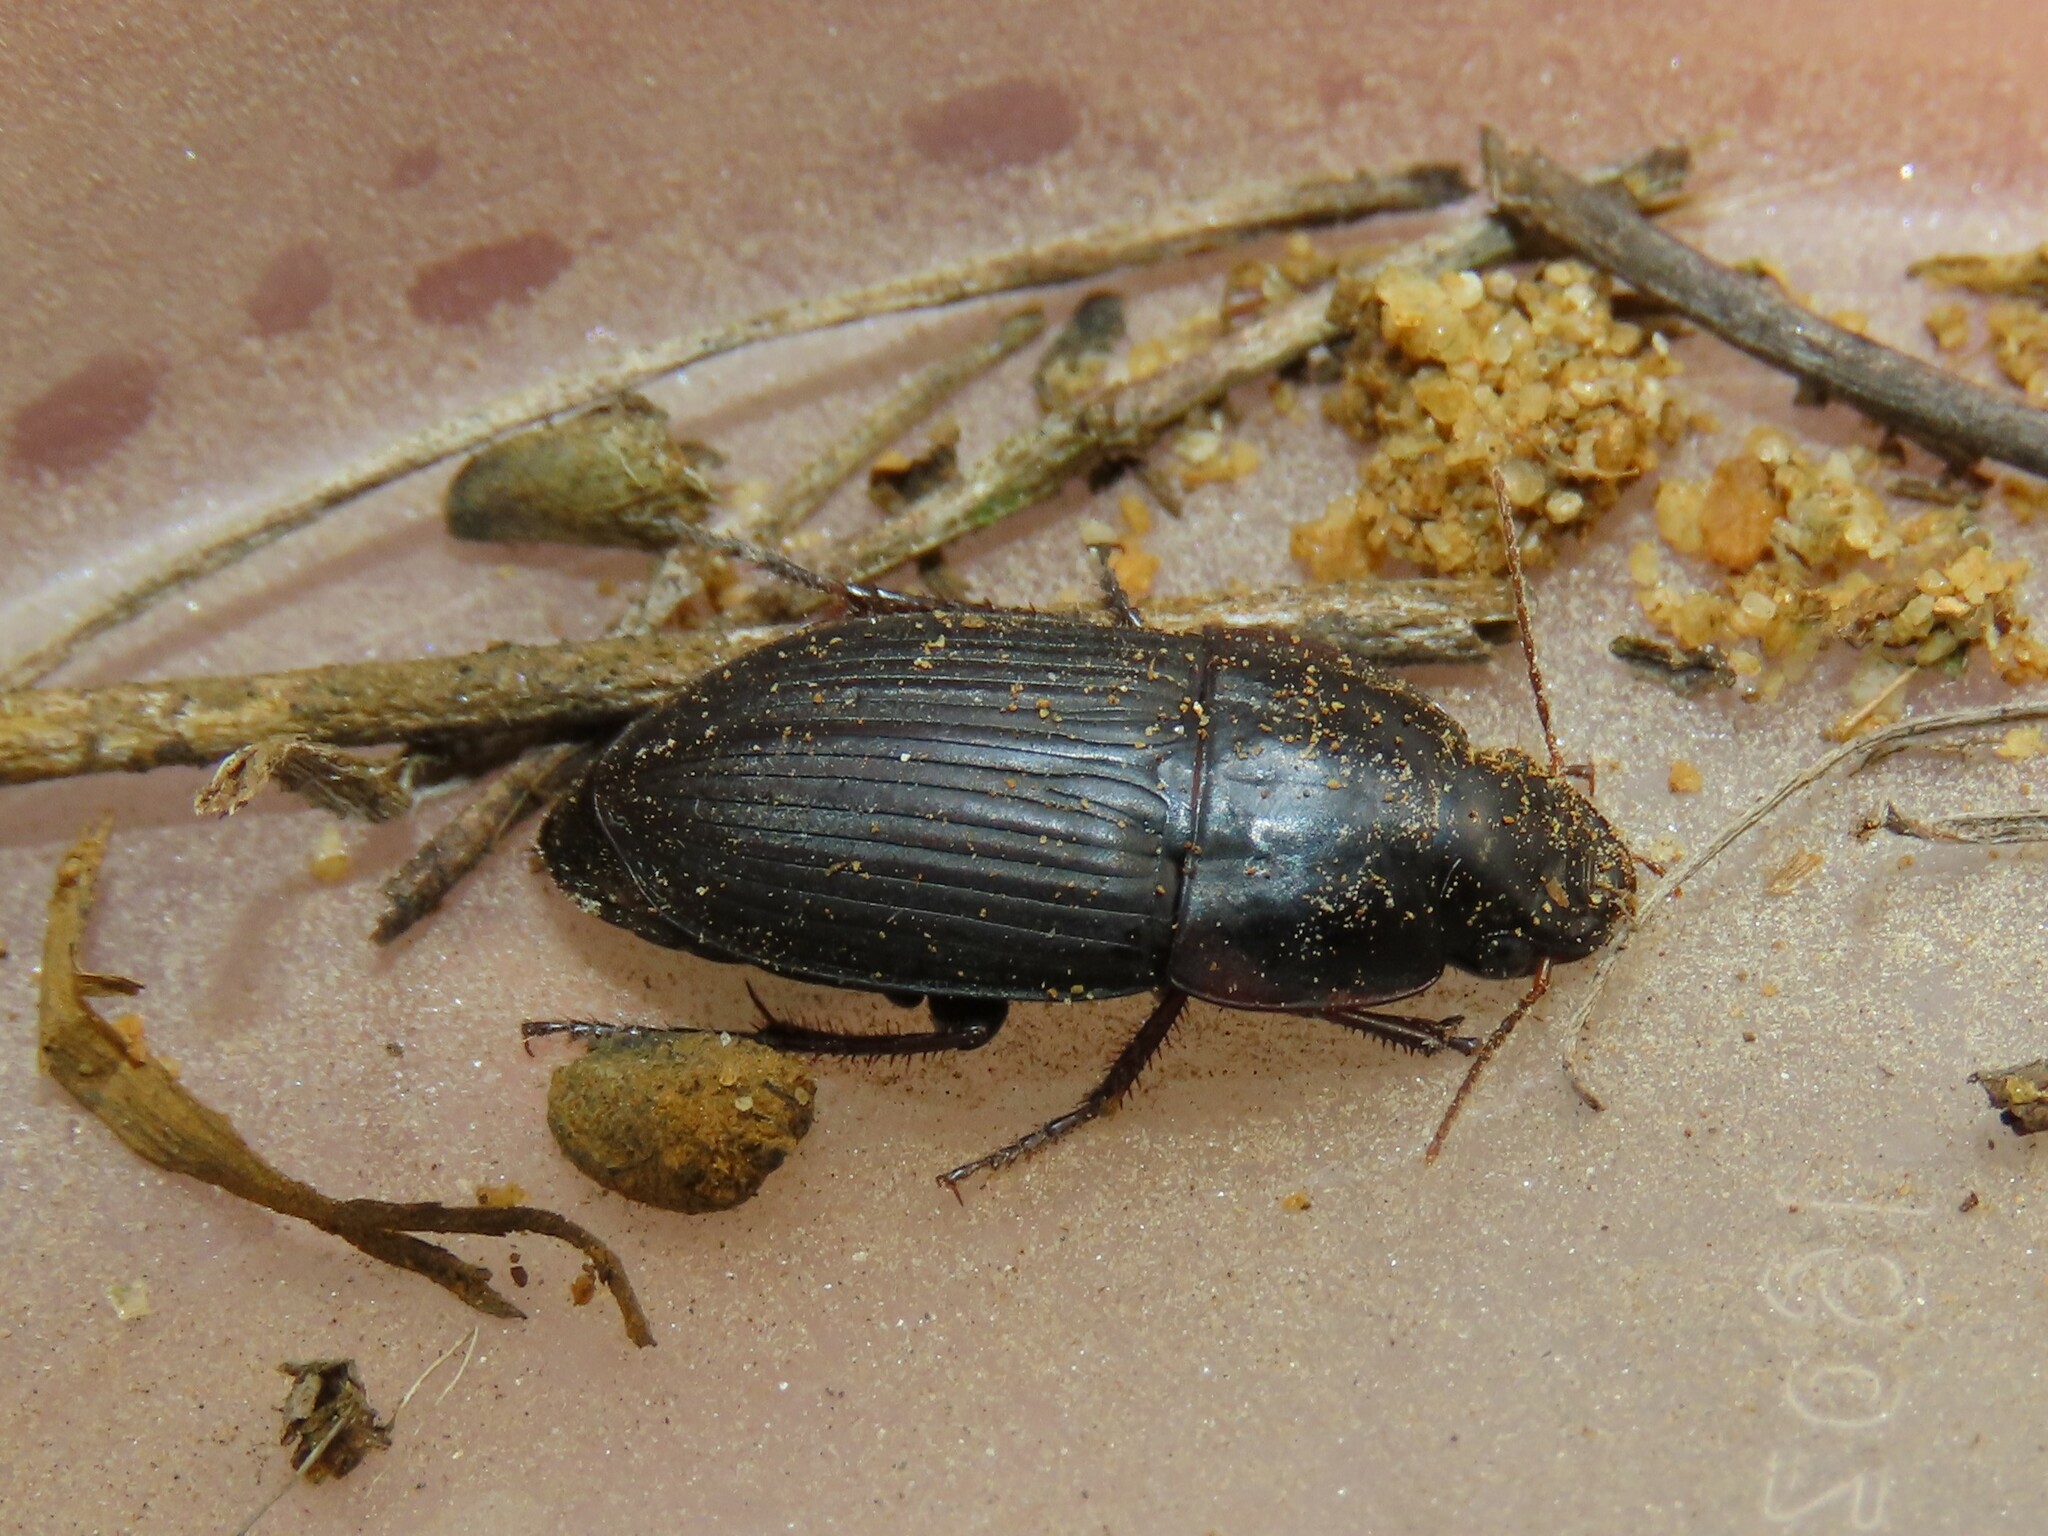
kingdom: Animalia
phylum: Arthropoda
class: Insecta
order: Coleoptera
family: Carabidae
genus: Anisodactylus
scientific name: Anisodactylus merula
